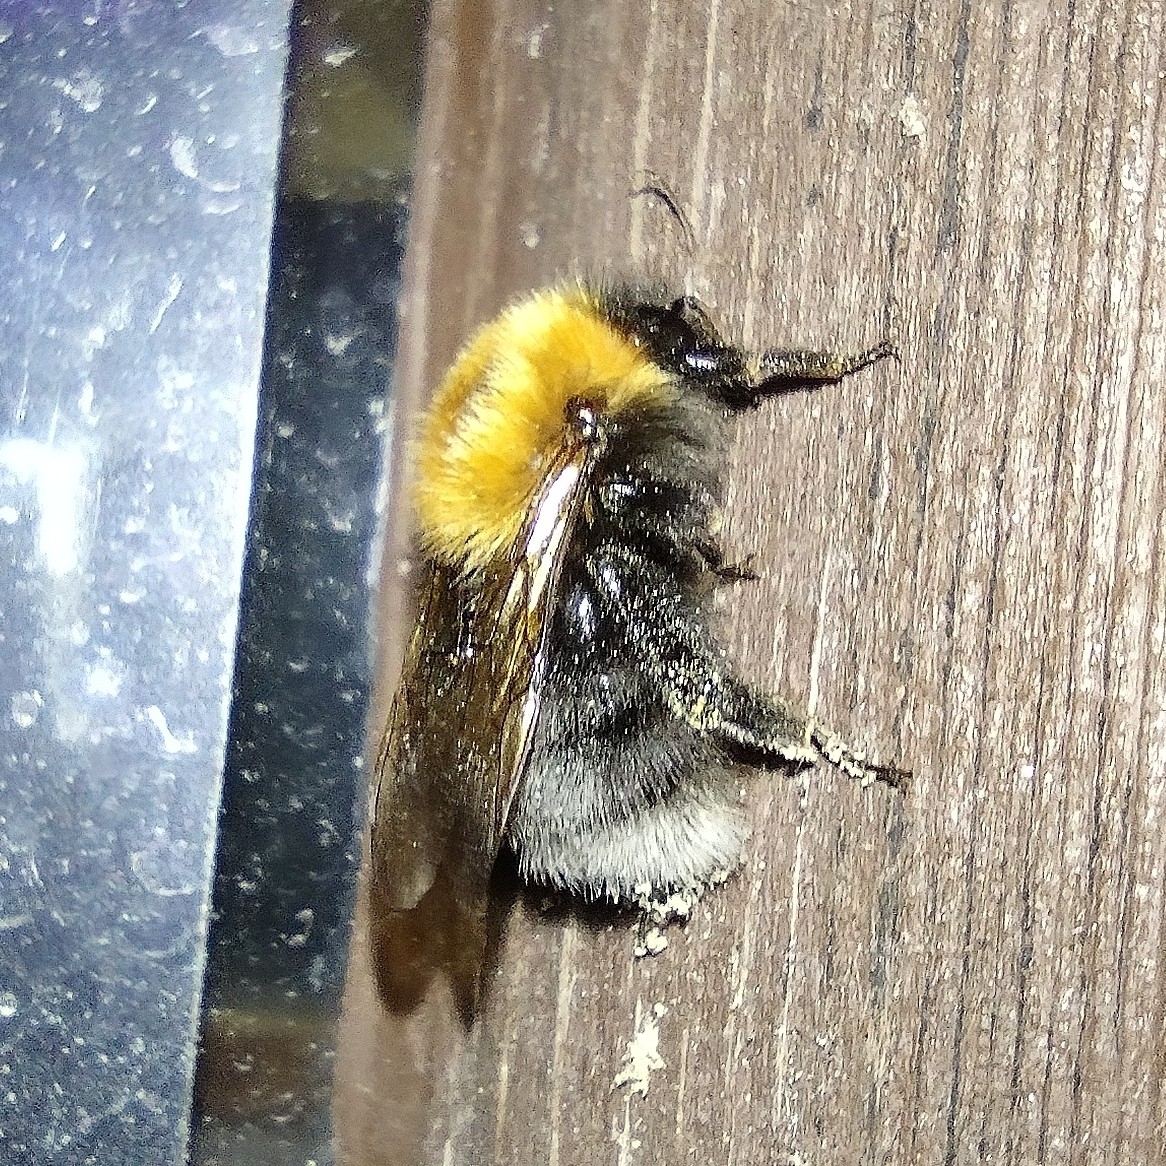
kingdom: Animalia
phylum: Arthropoda
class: Insecta
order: Hymenoptera
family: Apidae
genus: Bombus
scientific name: Bombus hypnorum
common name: New garden bumblebee
